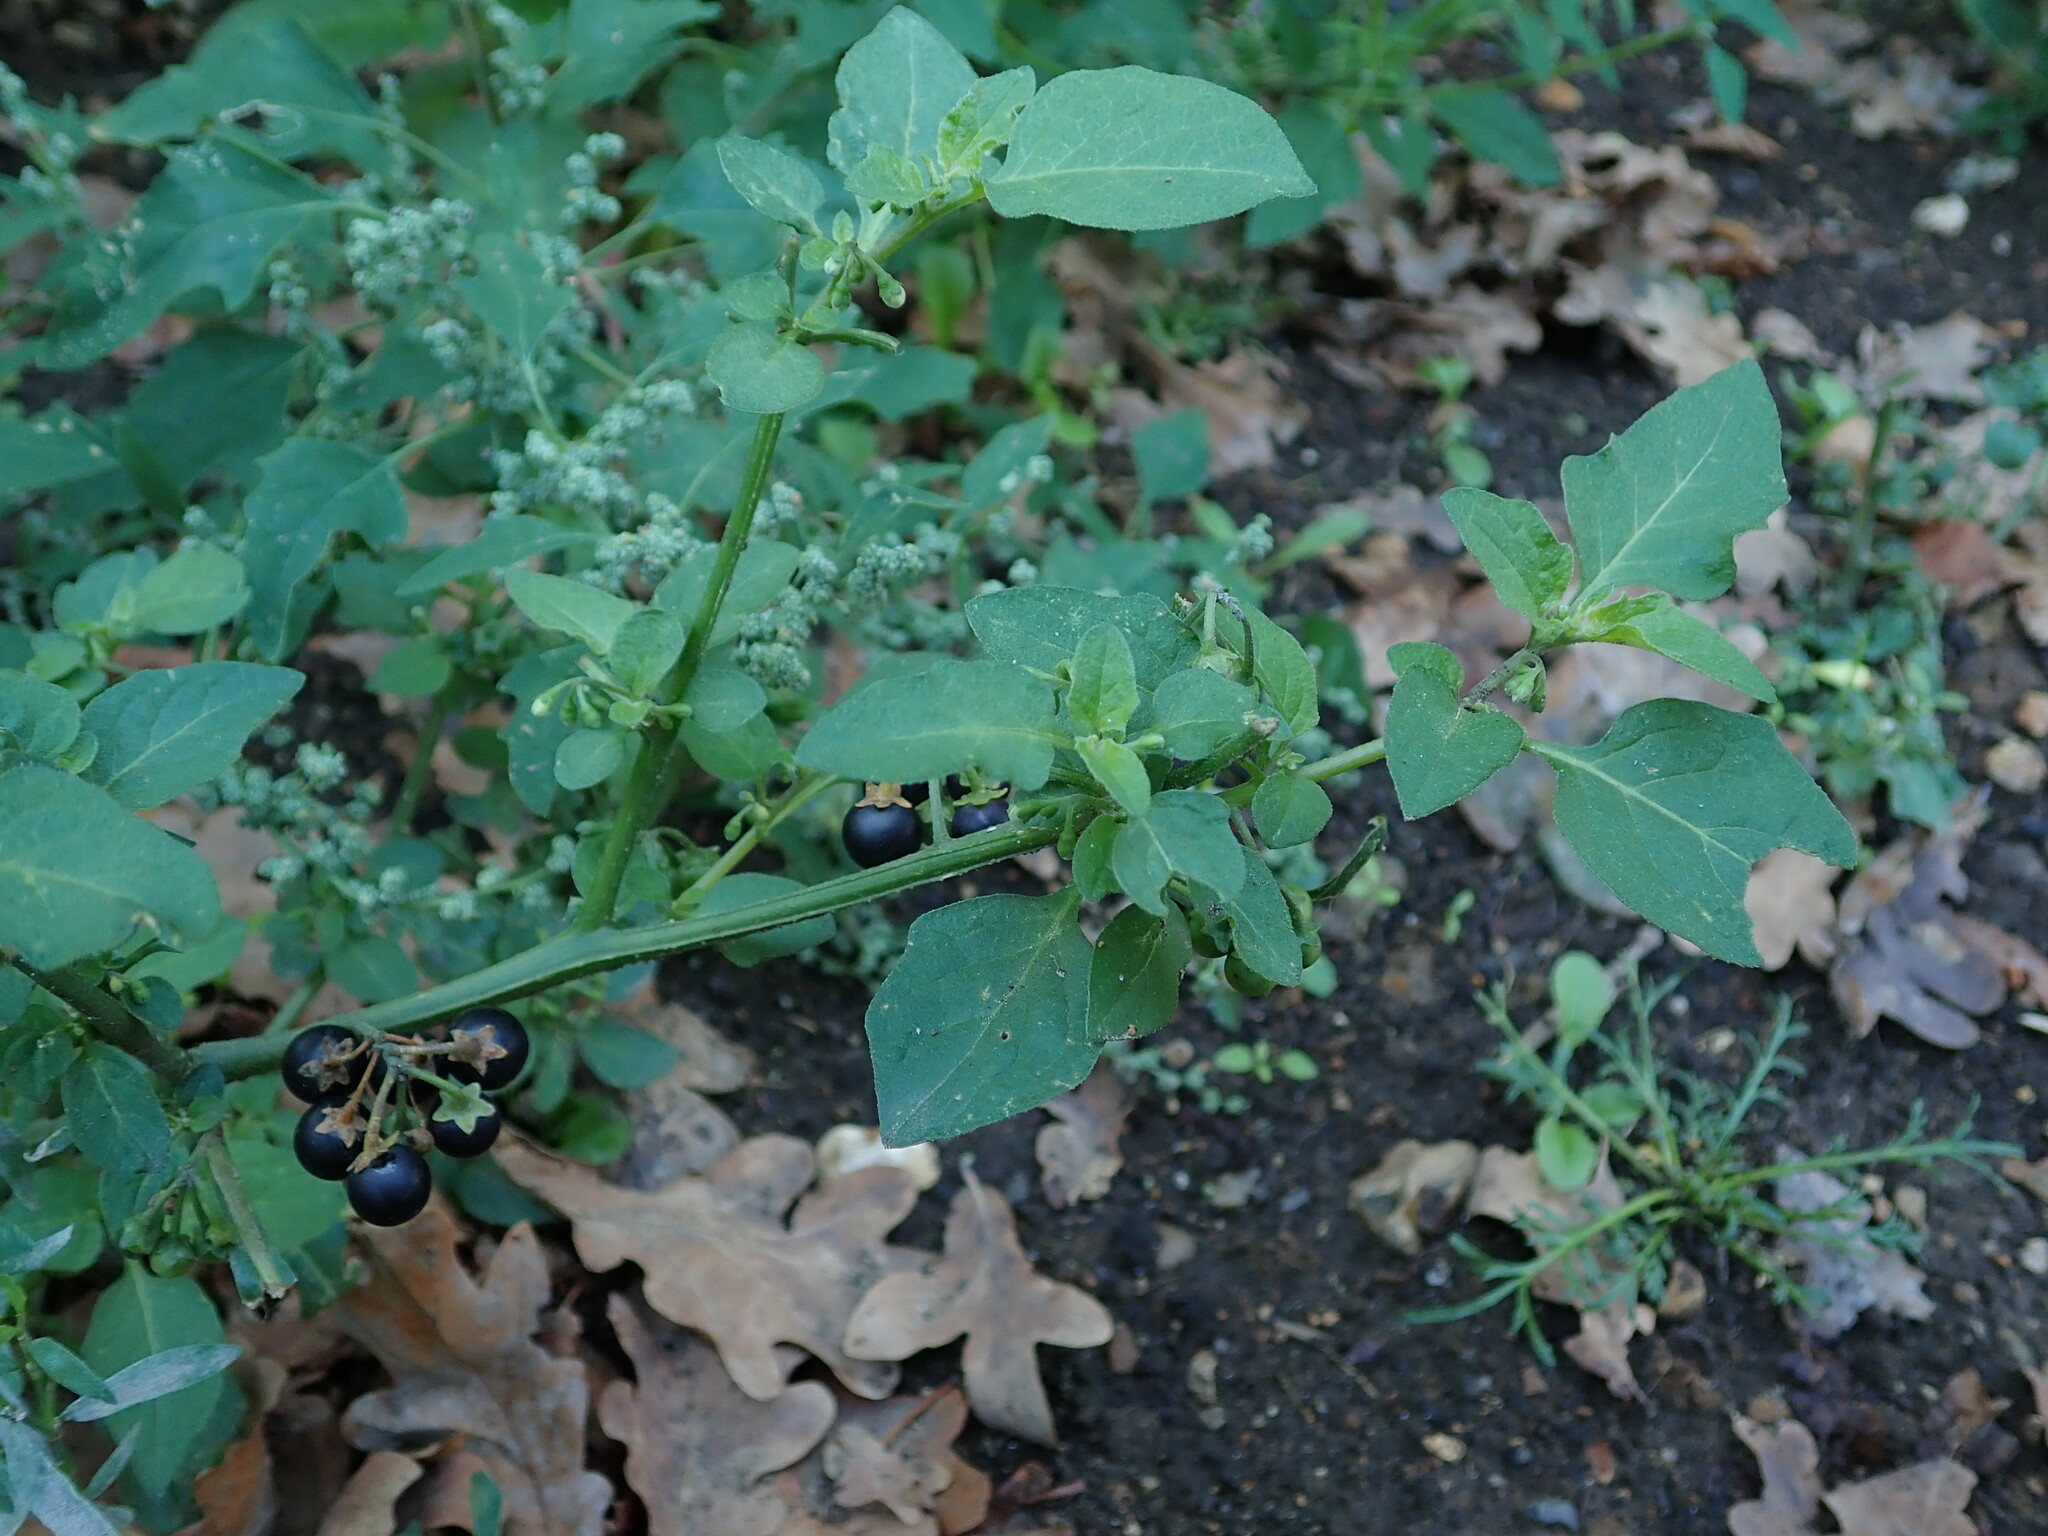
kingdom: Plantae
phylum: Tracheophyta
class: Magnoliopsida
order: Solanales
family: Solanaceae
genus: Solanum
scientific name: Solanum nigrum
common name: Black nightshade
